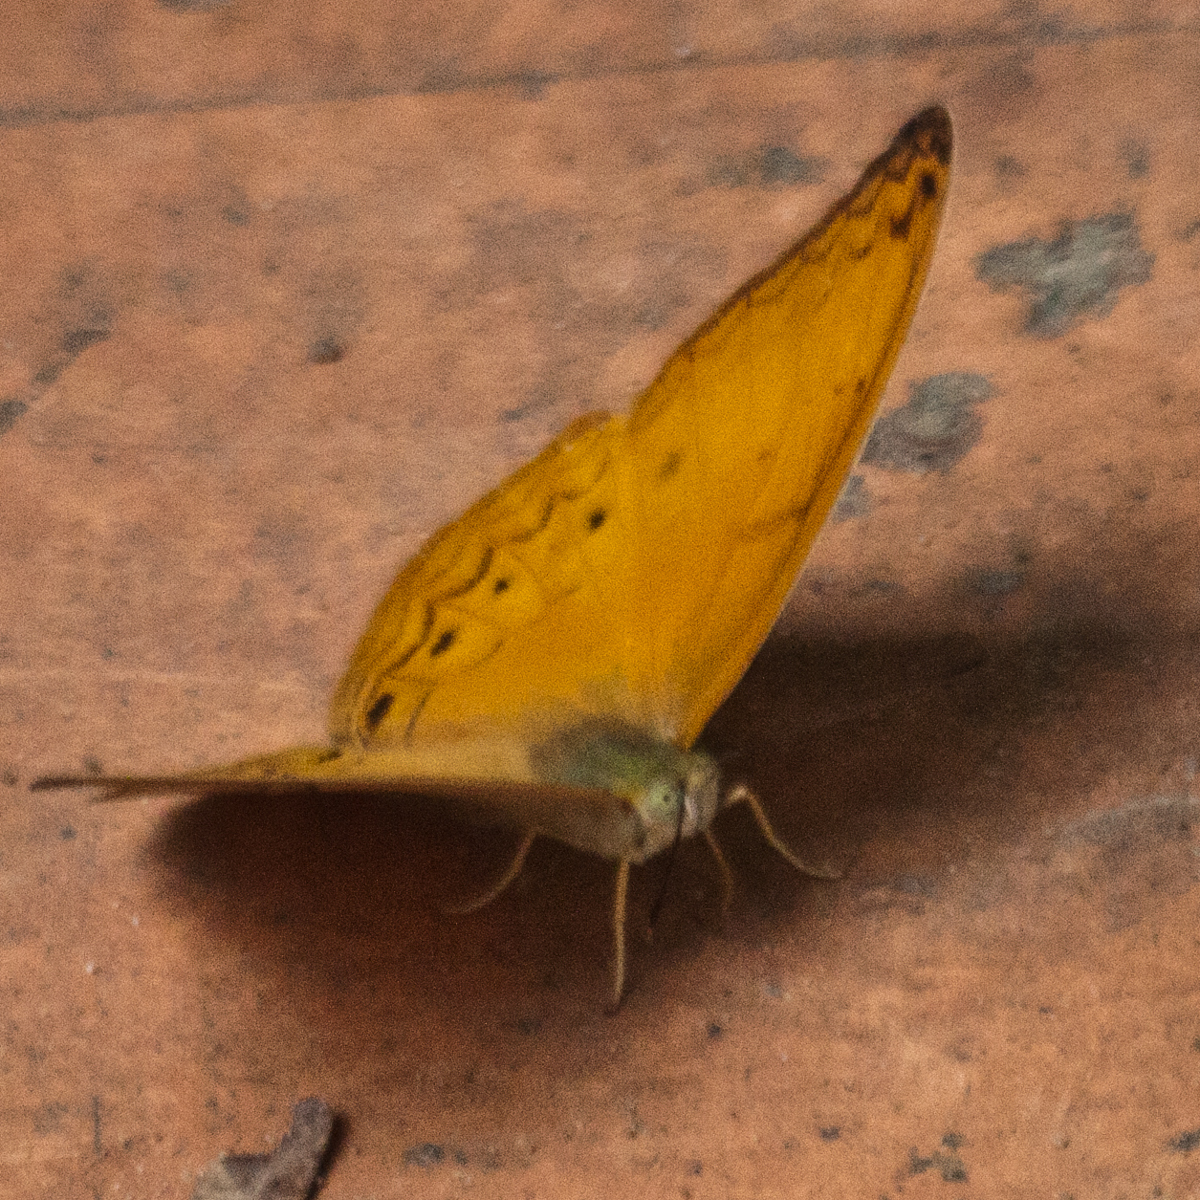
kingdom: Animalia
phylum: Arthropoda
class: Insecta
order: Lepidoptera
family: Nymphalidae
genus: Cirrochroa
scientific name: Cirrochroa tyche
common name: Common yeoman
